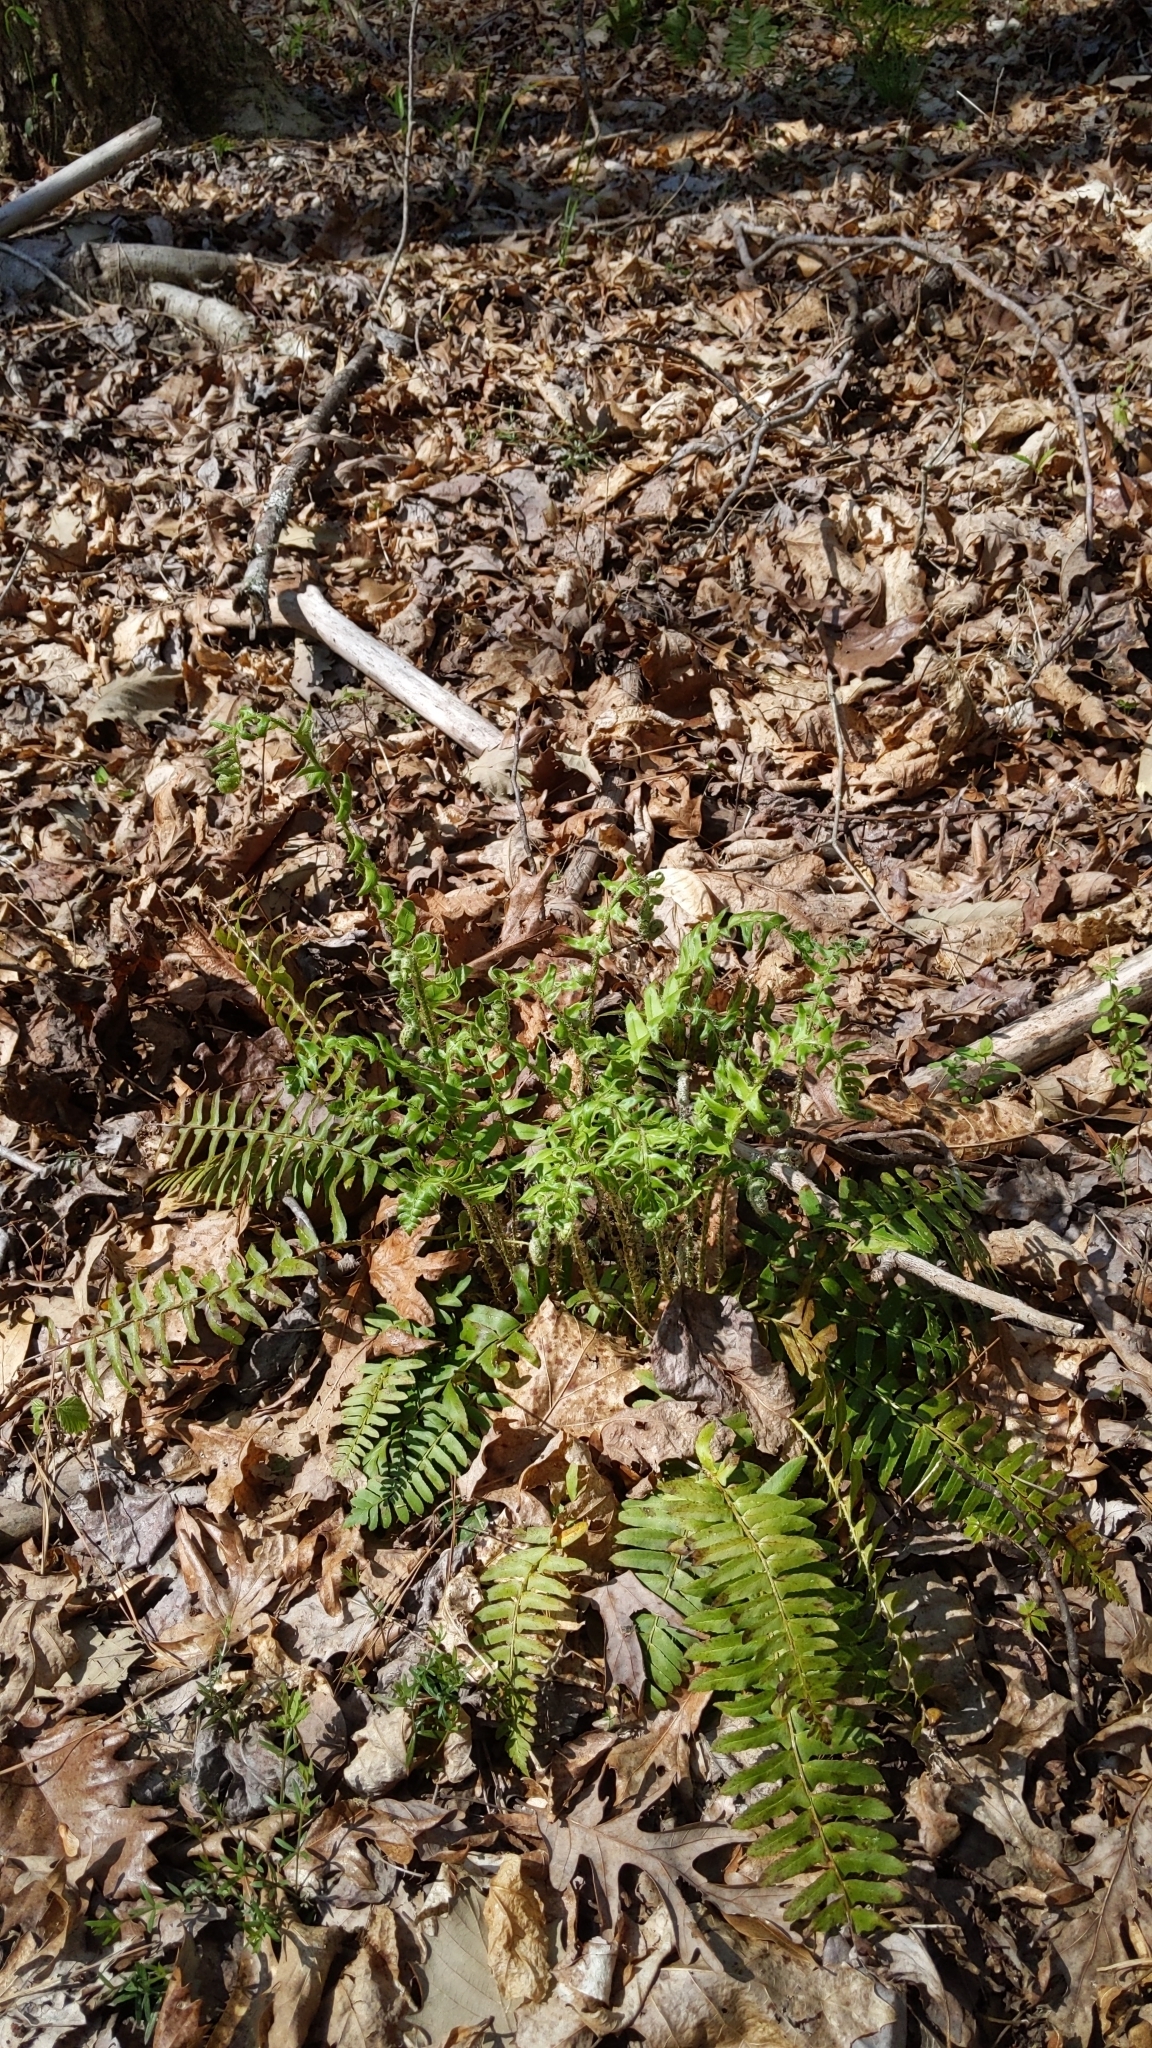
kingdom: Plantae
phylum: Tracheophyta
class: Polypodiopsida
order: Polypodiales
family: Dryopteridaceae
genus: Polystichum
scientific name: Polystichum acrostichoides
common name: Christmas fern
